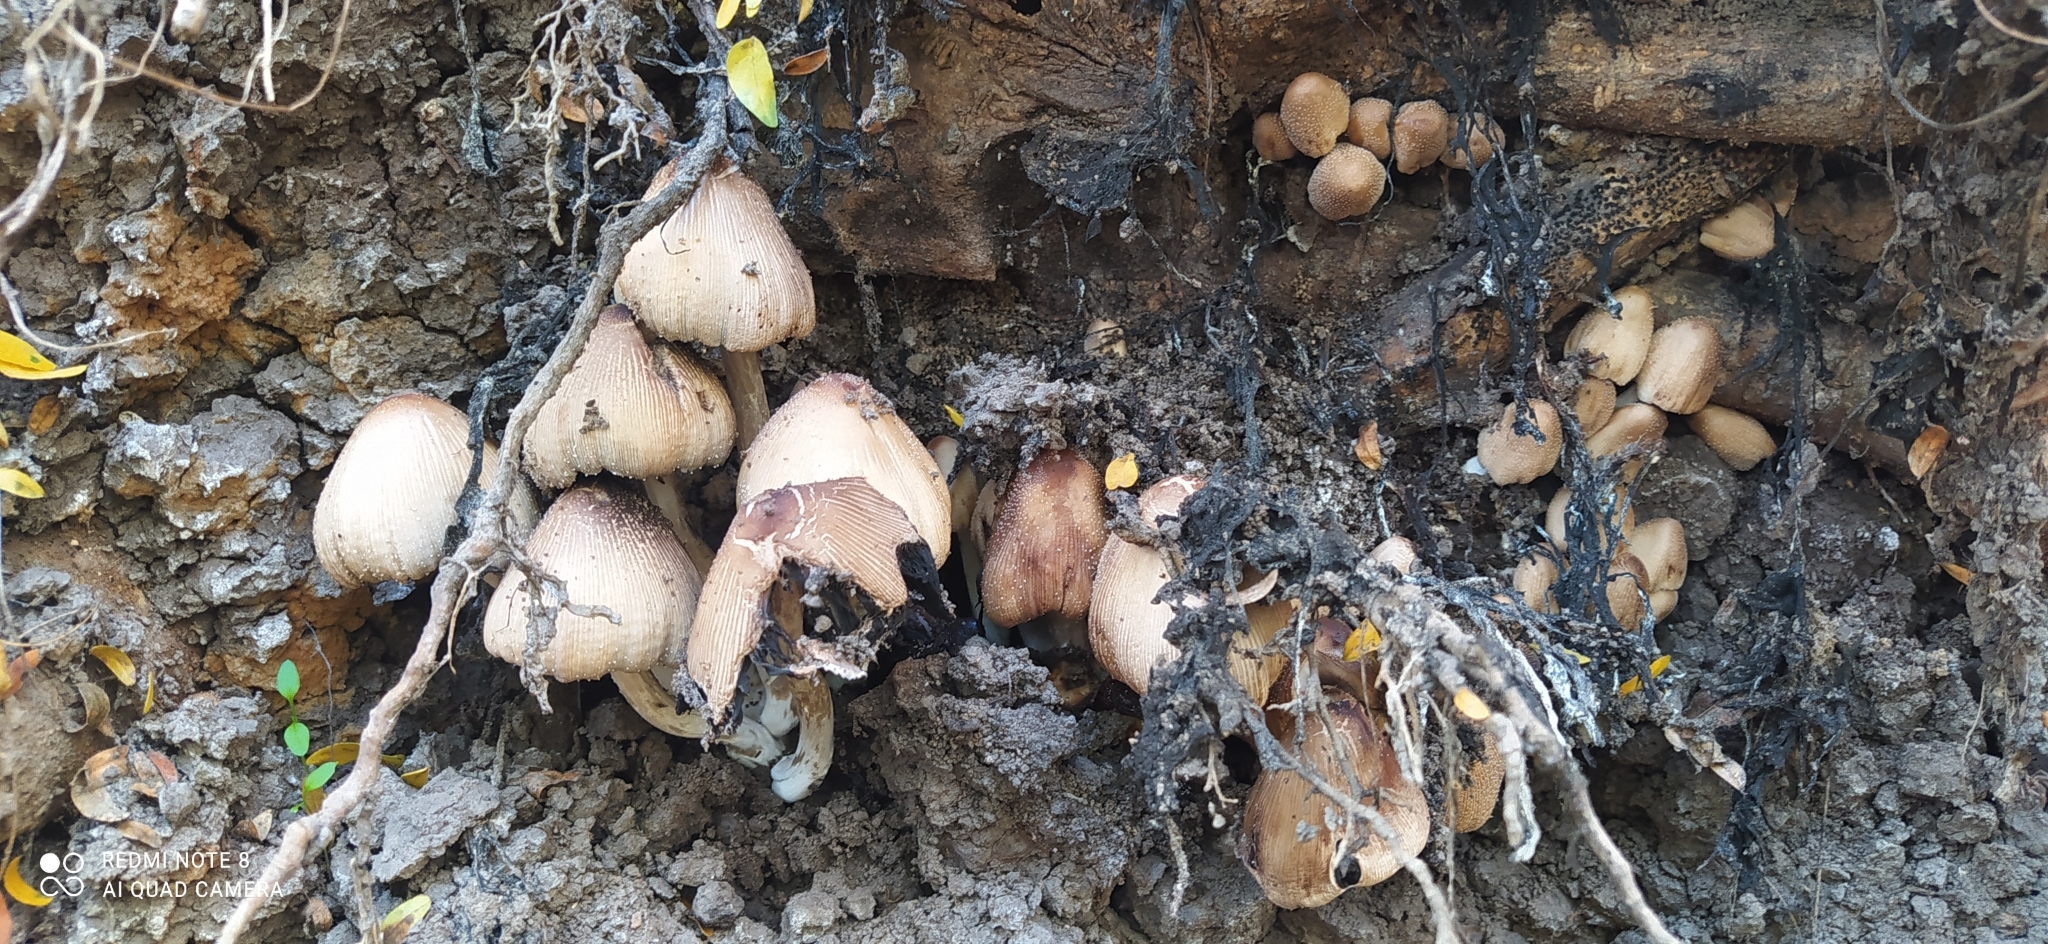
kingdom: Fungi
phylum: Basidiomycota
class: Agaricomycetes
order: Agaricales
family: Psathyrellaceae
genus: Coprinellus
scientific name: Coprinellus micaceus
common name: Glistening ink-cap
